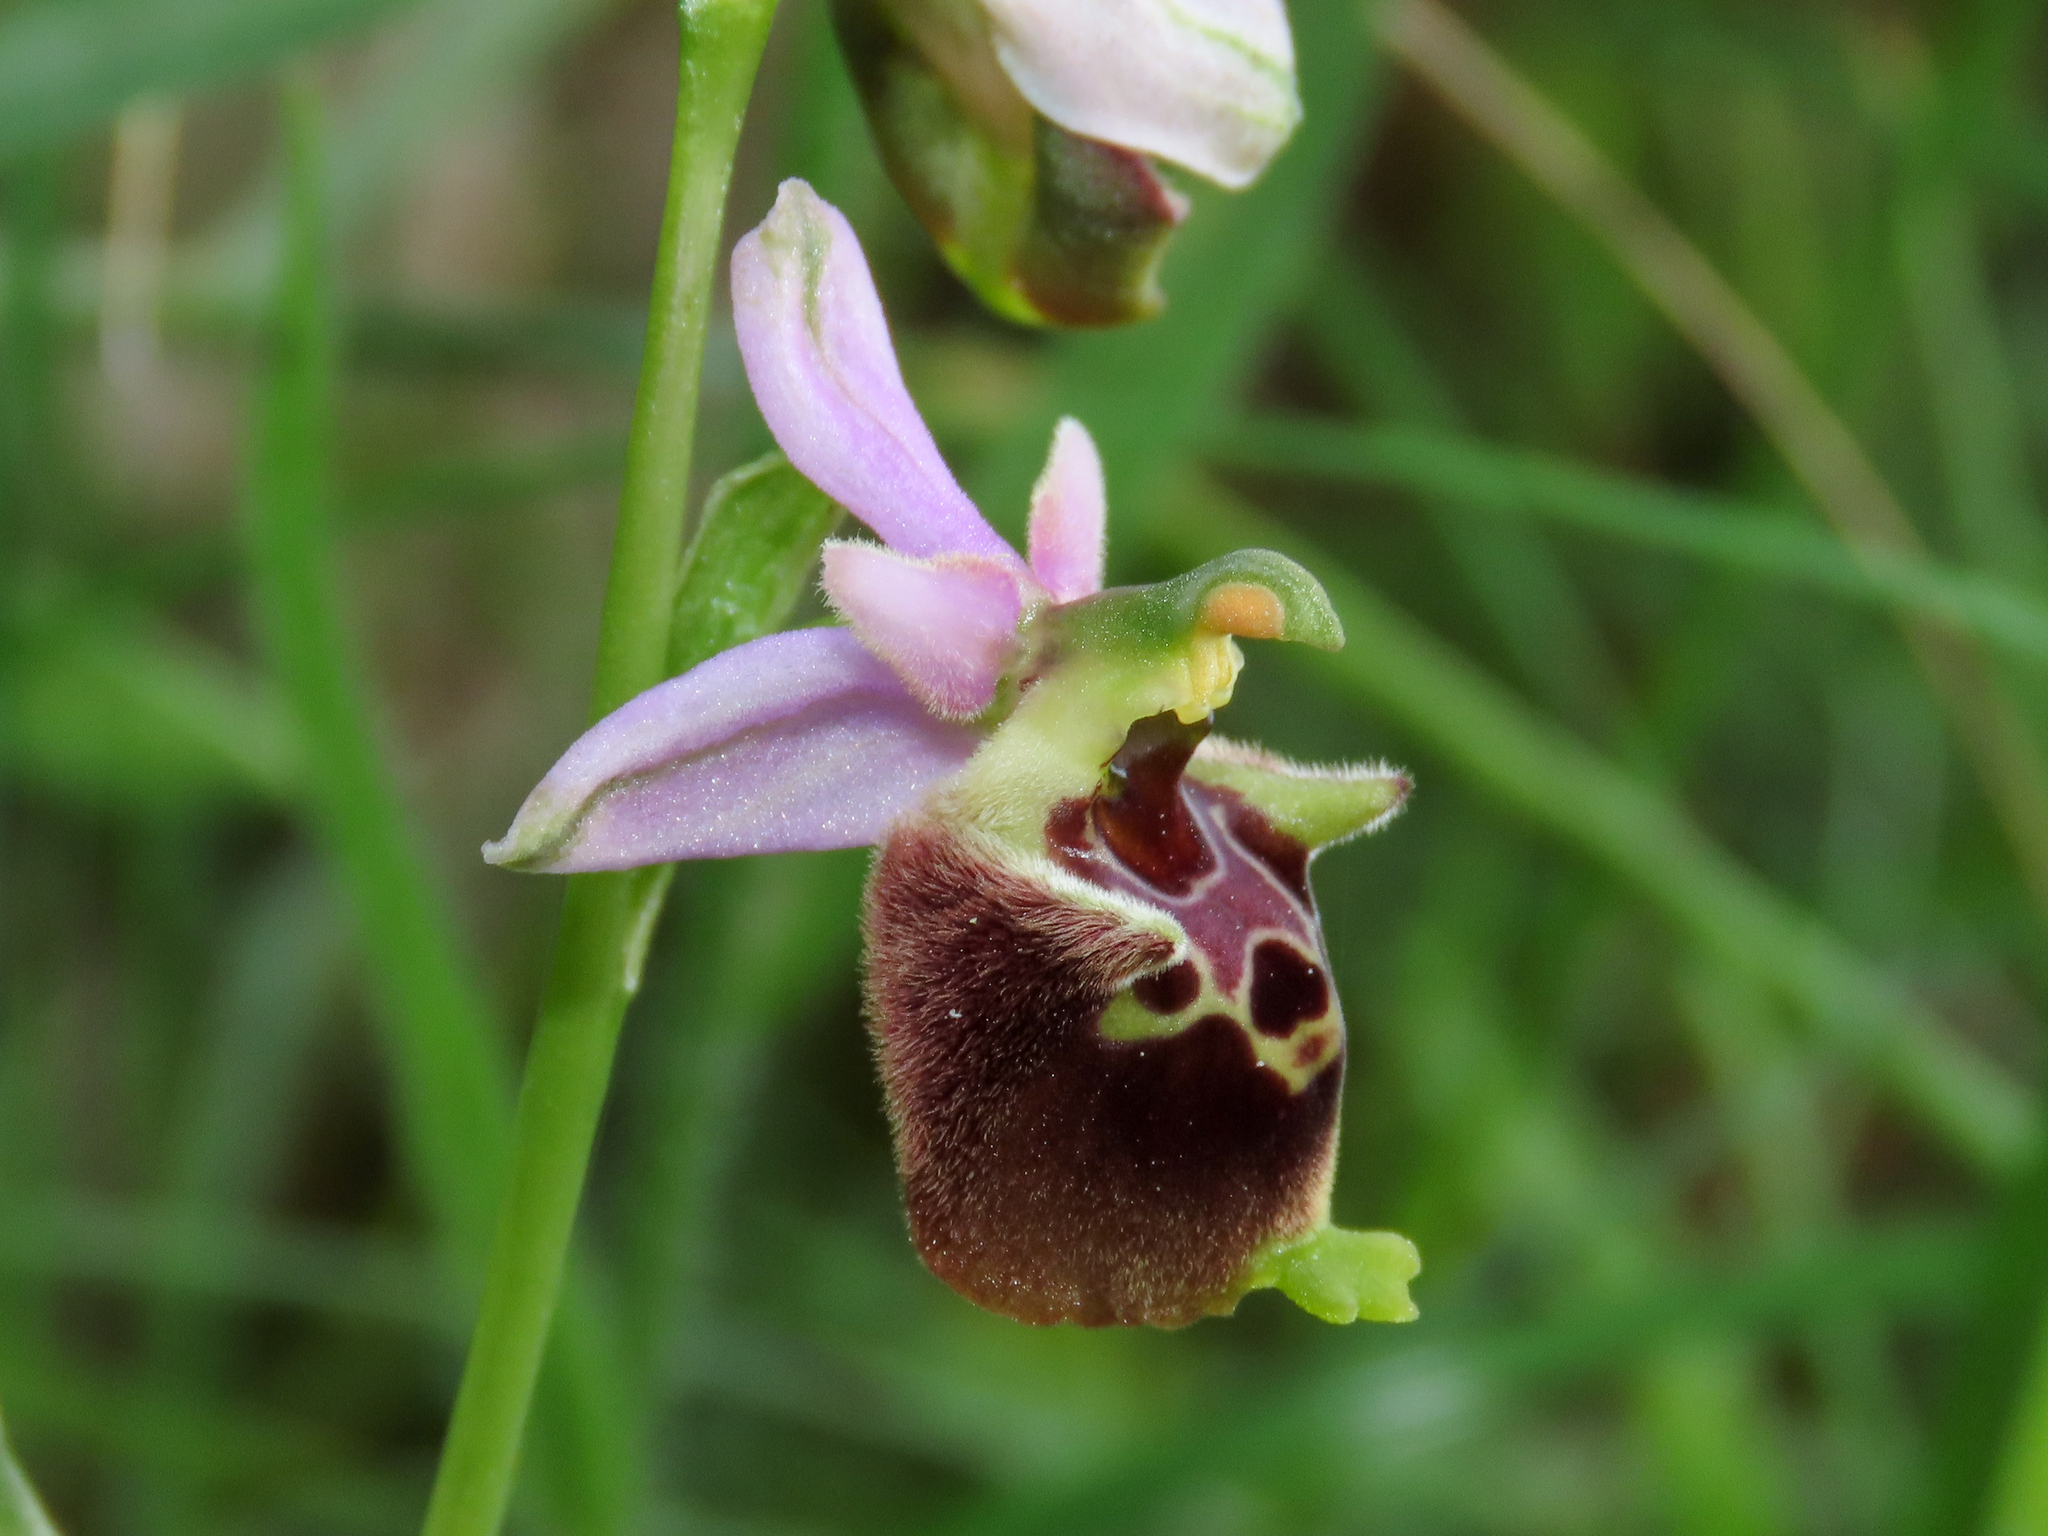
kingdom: Plantae
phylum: Tracheophyta
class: Liliopsida
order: Asparagales
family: Orchidaceae
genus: Ophrys
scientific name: Ophrys holosericea
